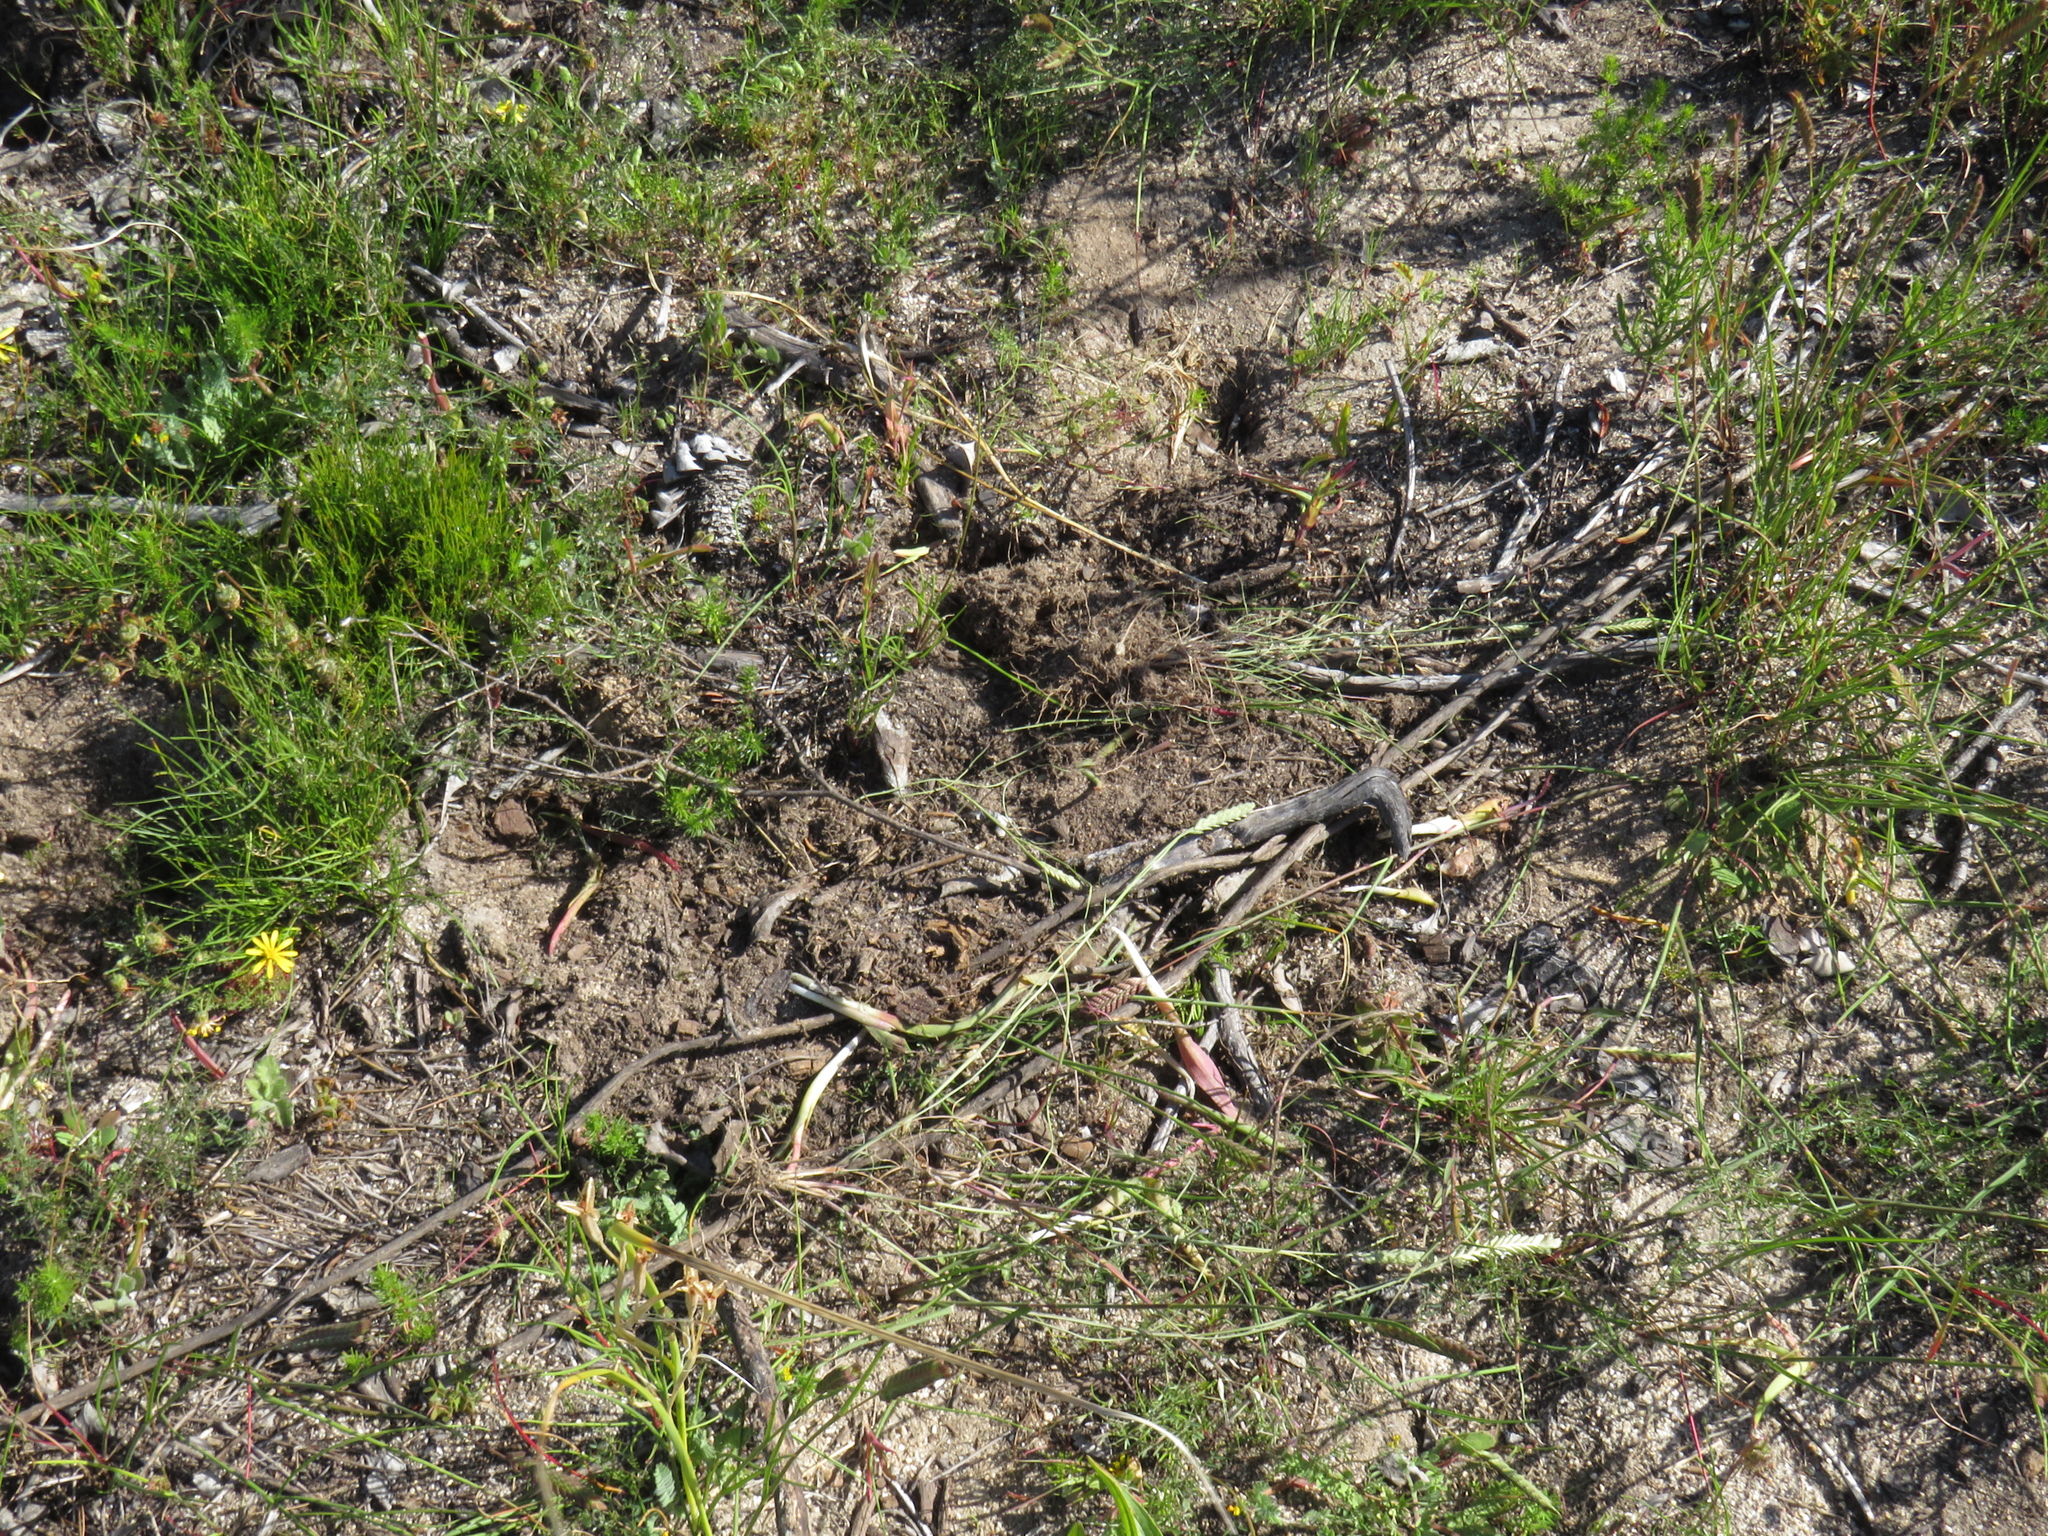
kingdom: Animalia
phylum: Chordata
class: Mammalia
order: Primates
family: Cercopithecidae
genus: Papio
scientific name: Papio ursinus
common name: Chacma baboon
